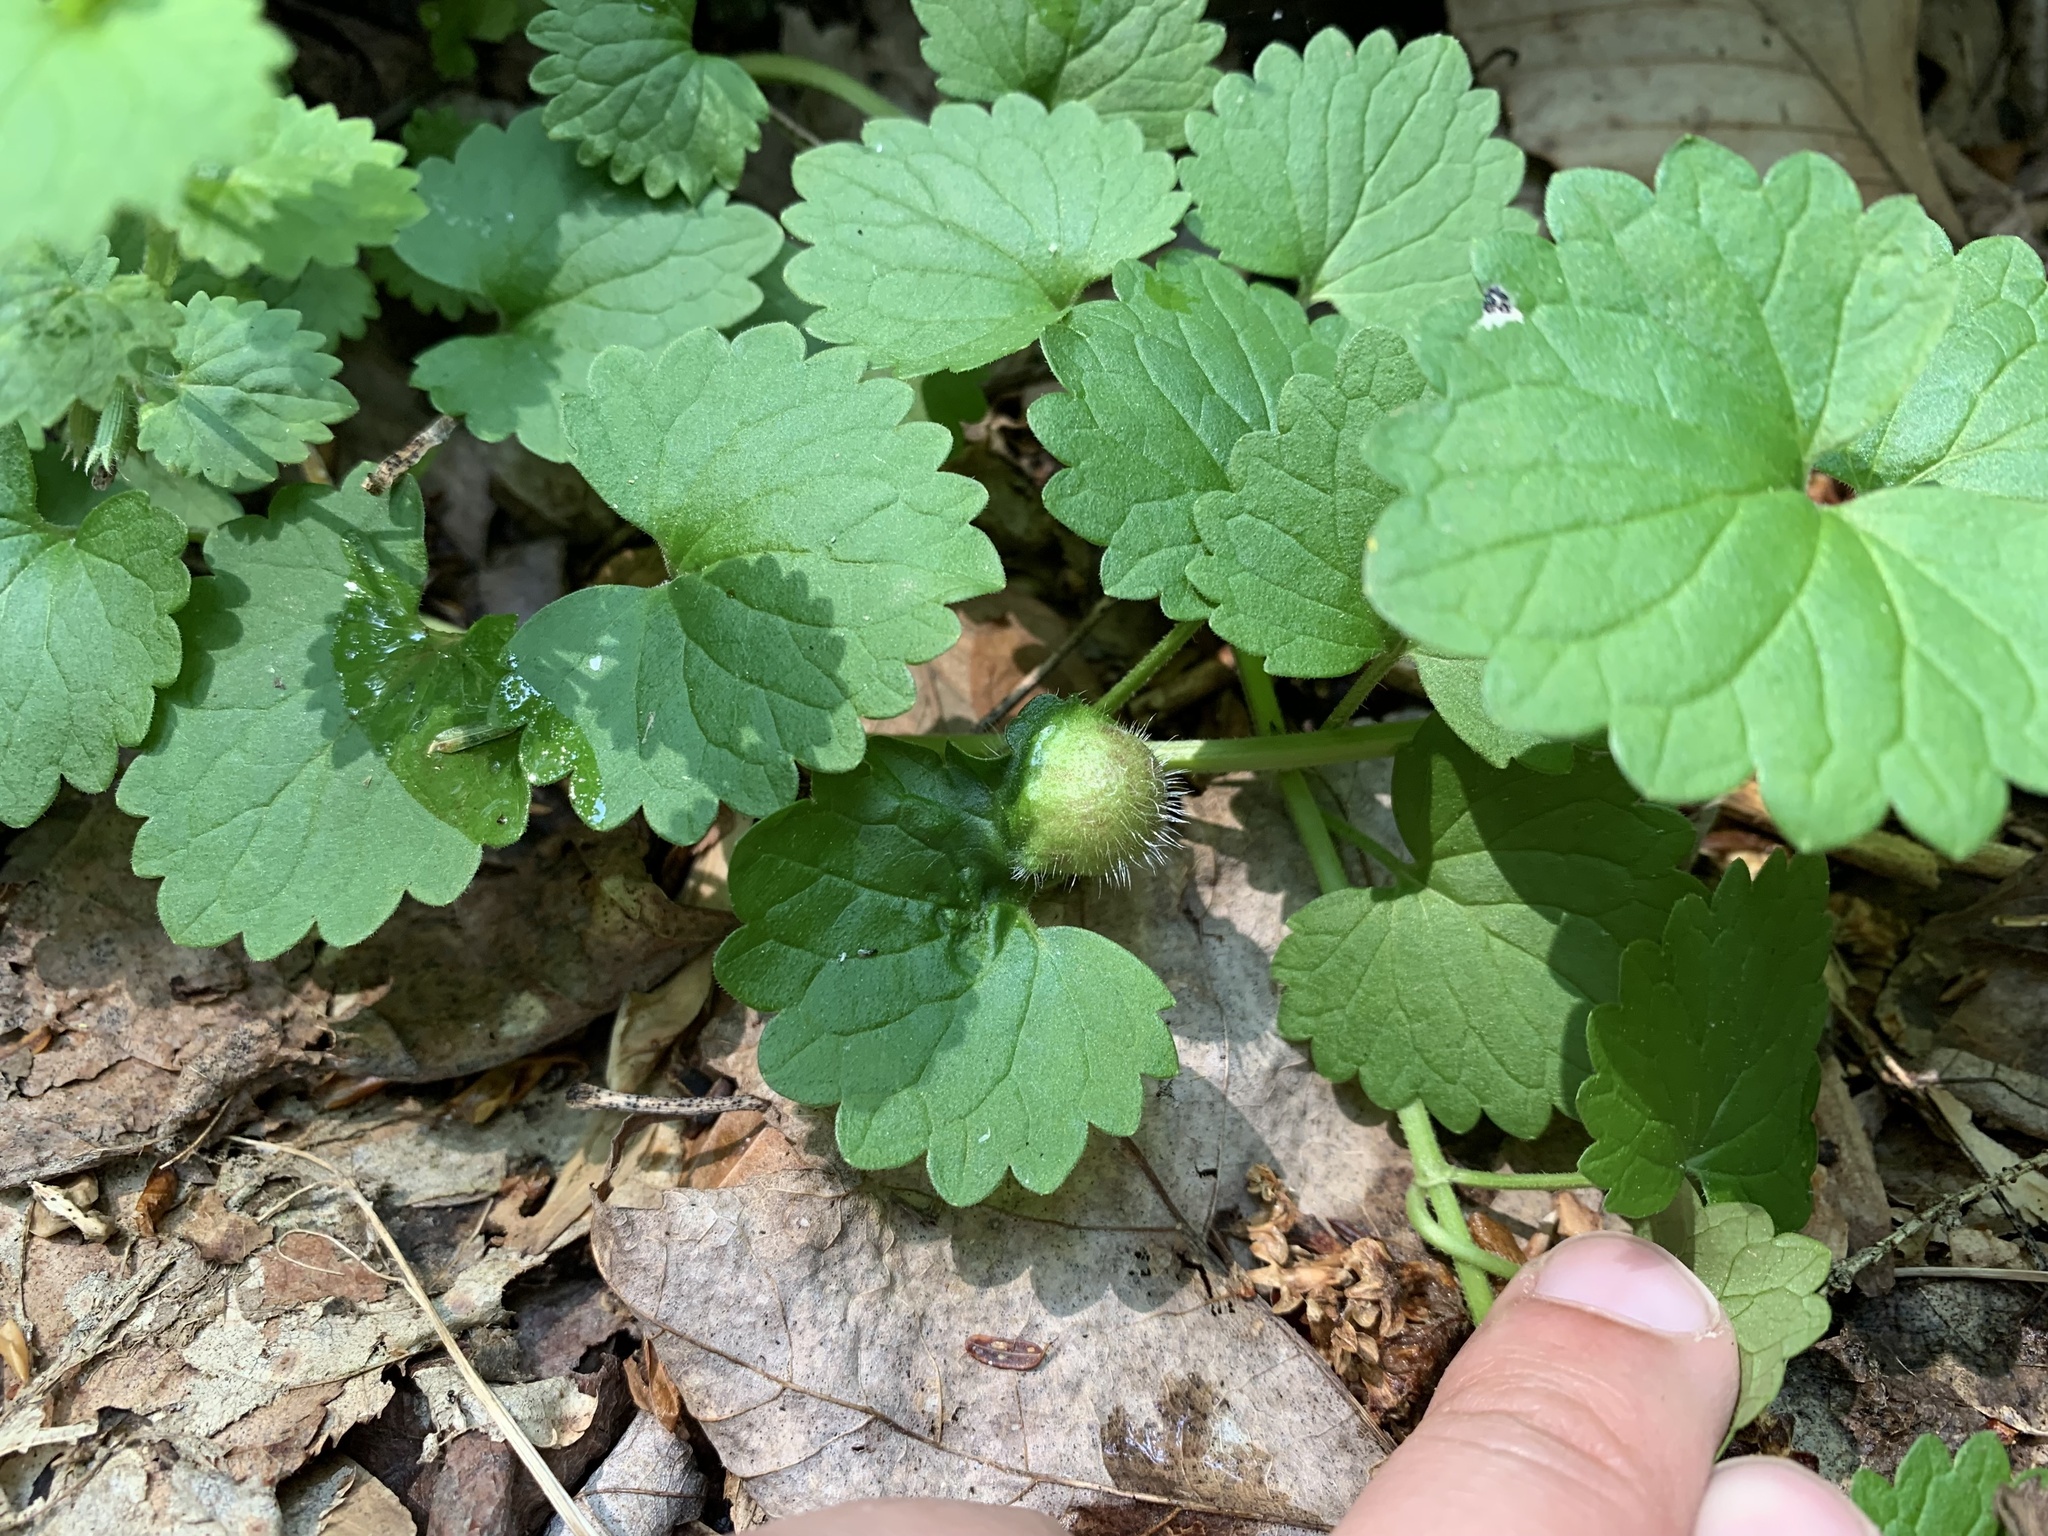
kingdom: Animalia
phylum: Arthropoda
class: Insecta
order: Hymenoptera
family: Cynipidae
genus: Liposthenes
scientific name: Liposthenes glechomae
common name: Gall wasp
